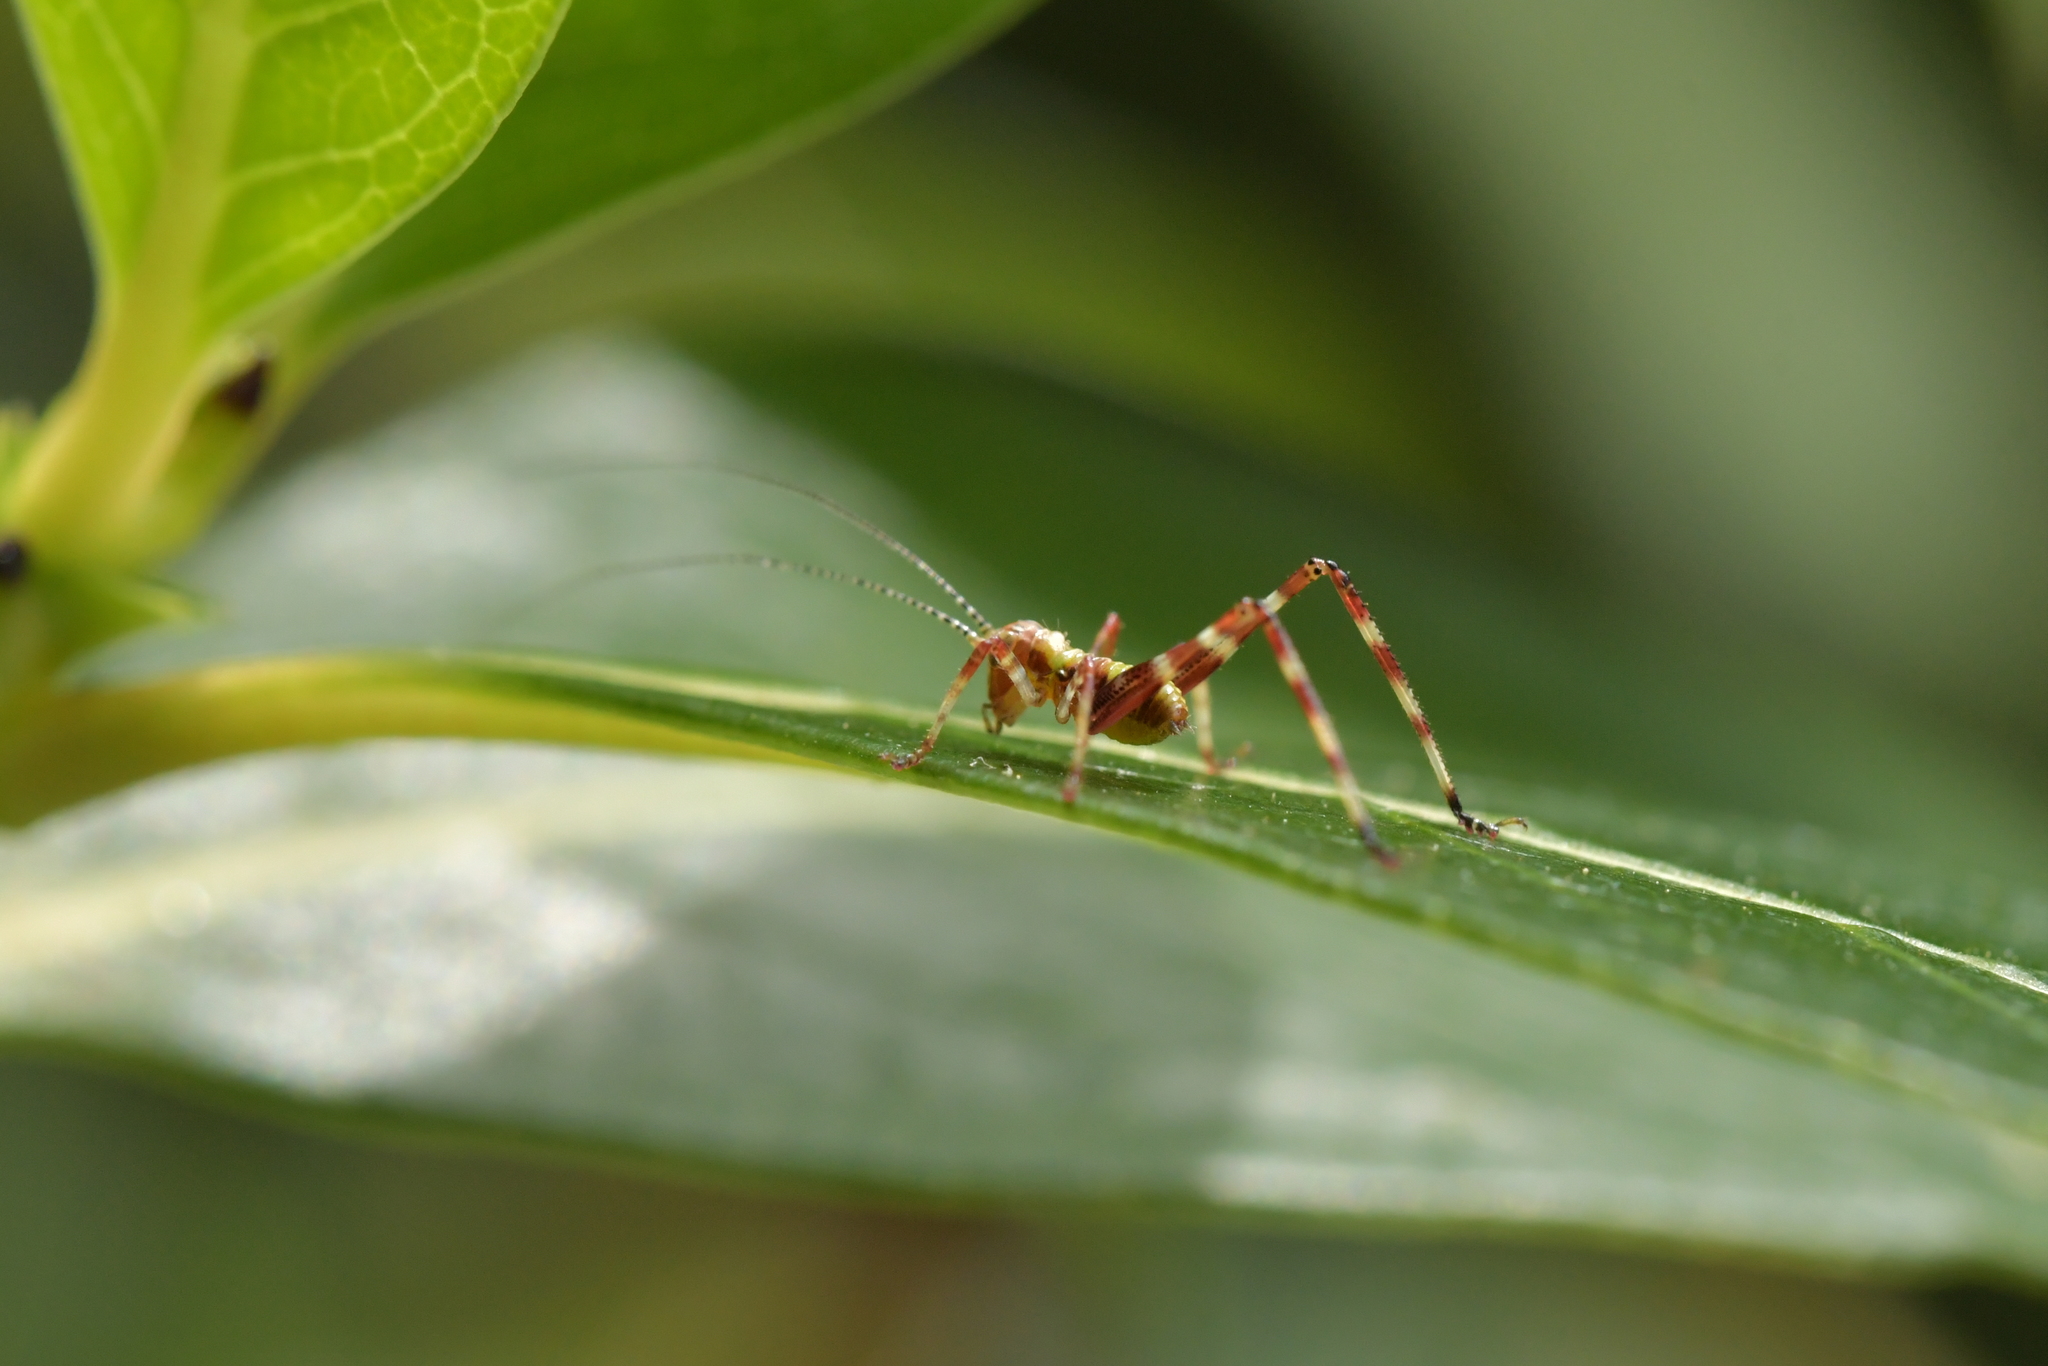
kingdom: Animalia
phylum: Arthropoda
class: Insecta
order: Orthoptera
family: Tettigoniidae
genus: Caedicia
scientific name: Caedicia simplex
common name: Common garden katydid
